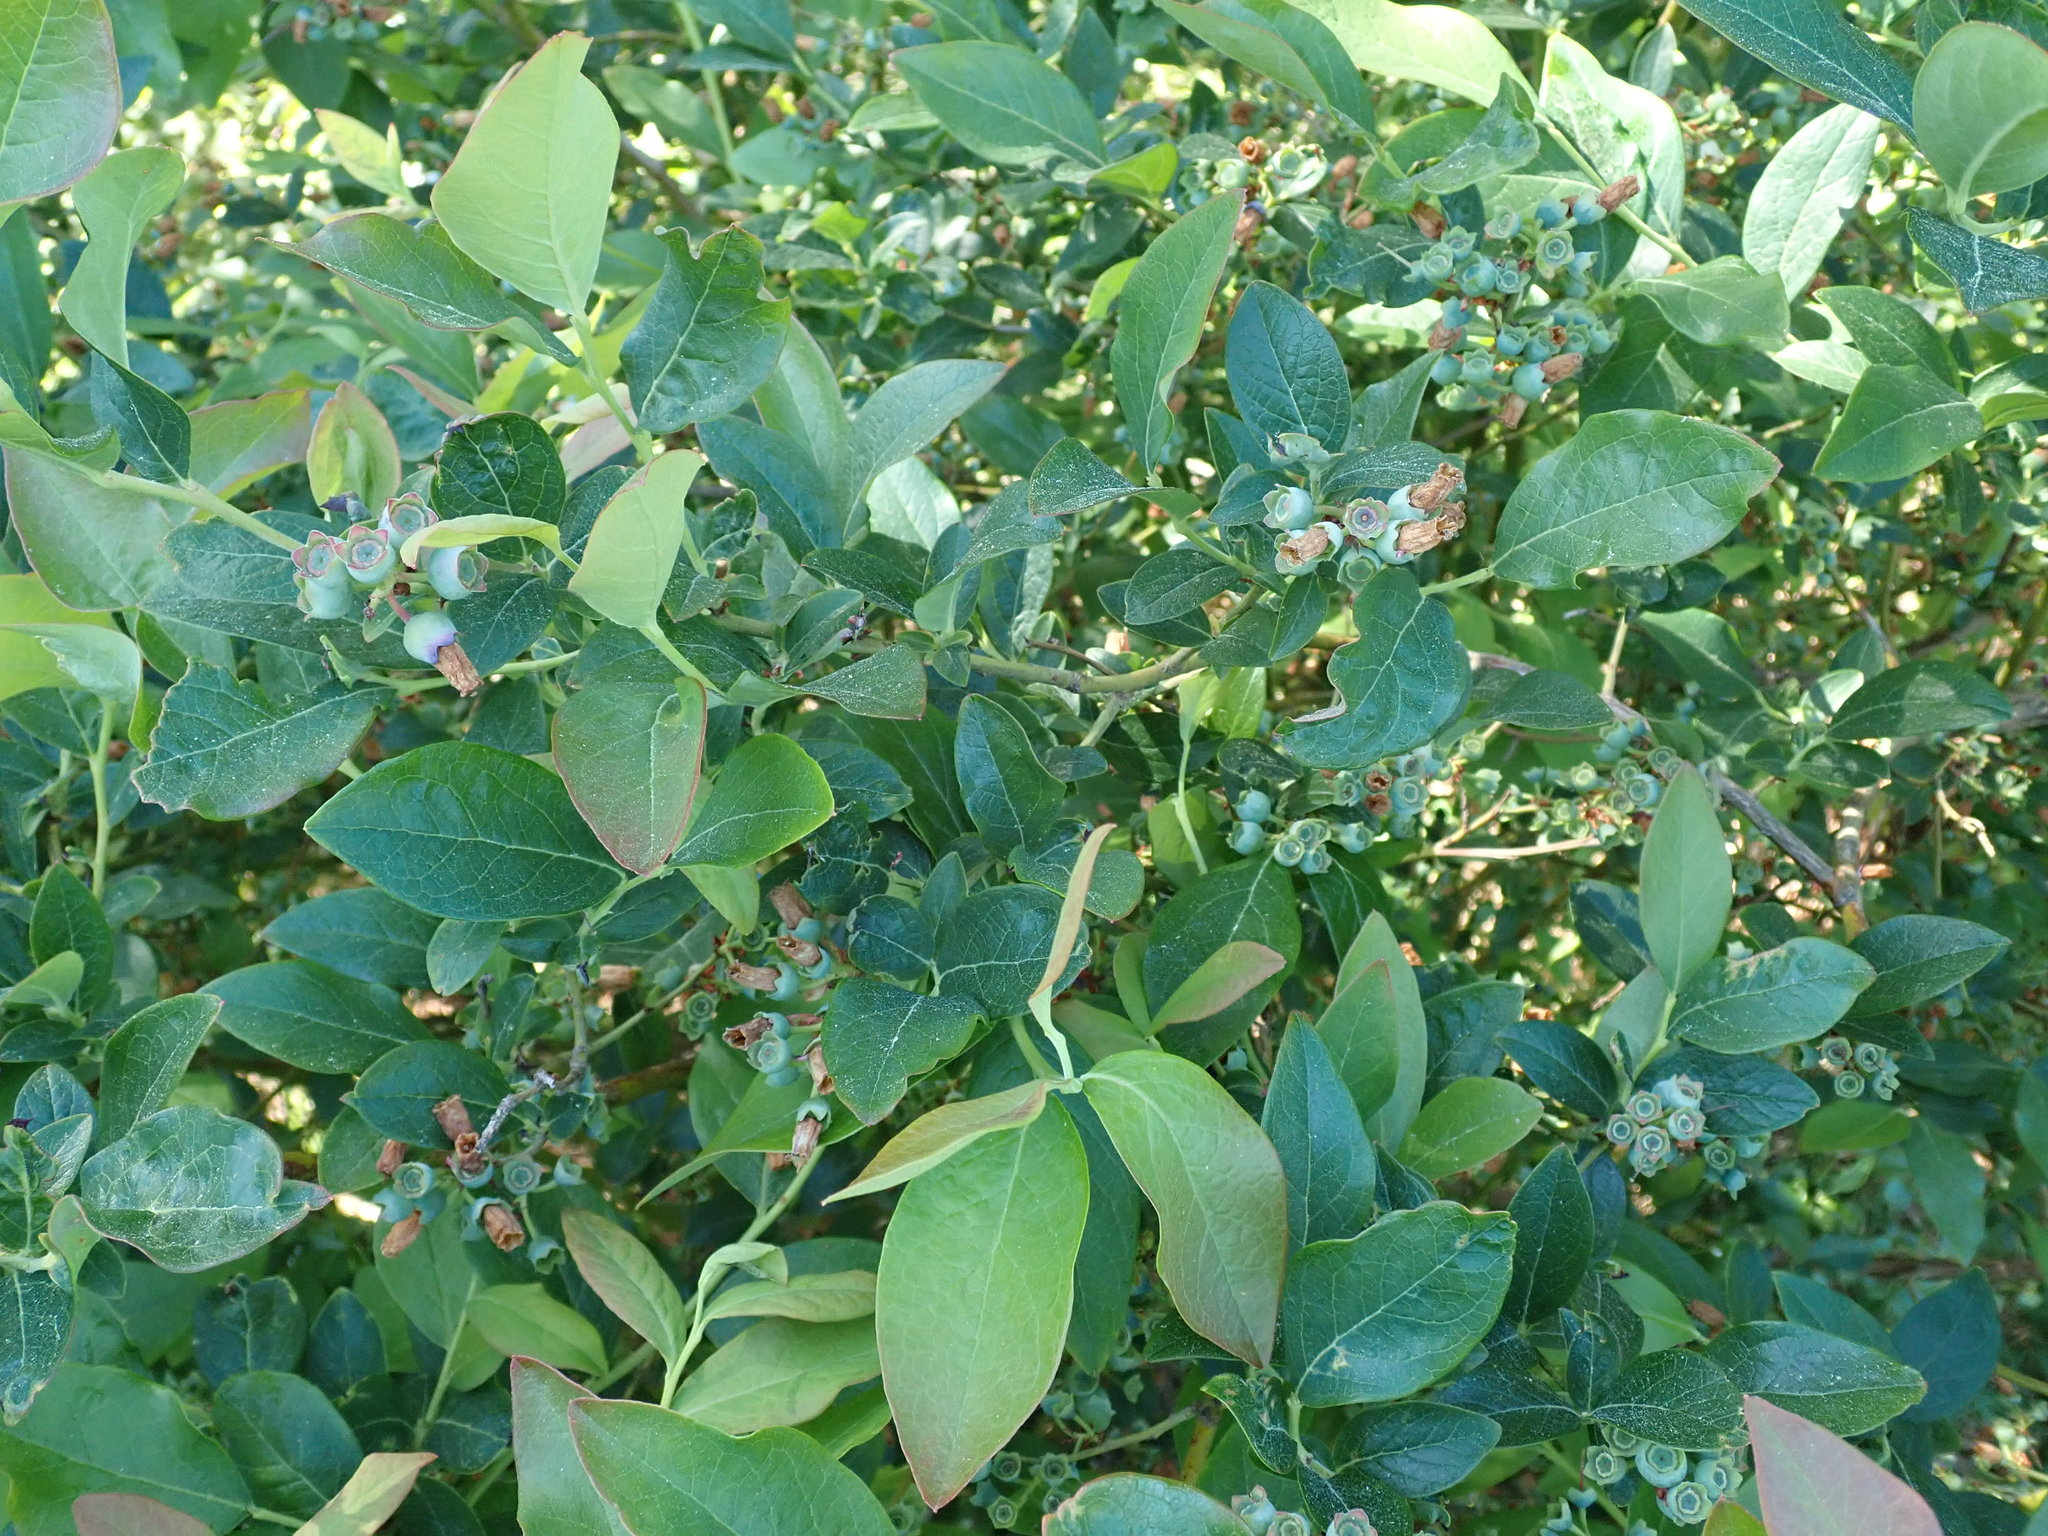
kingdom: Plantae
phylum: Tracheophyta
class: Magnoliopsida
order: Ericales
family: Ericaceae
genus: Vaccinium
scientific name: Vaccinium corymbosum
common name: Blueberry
